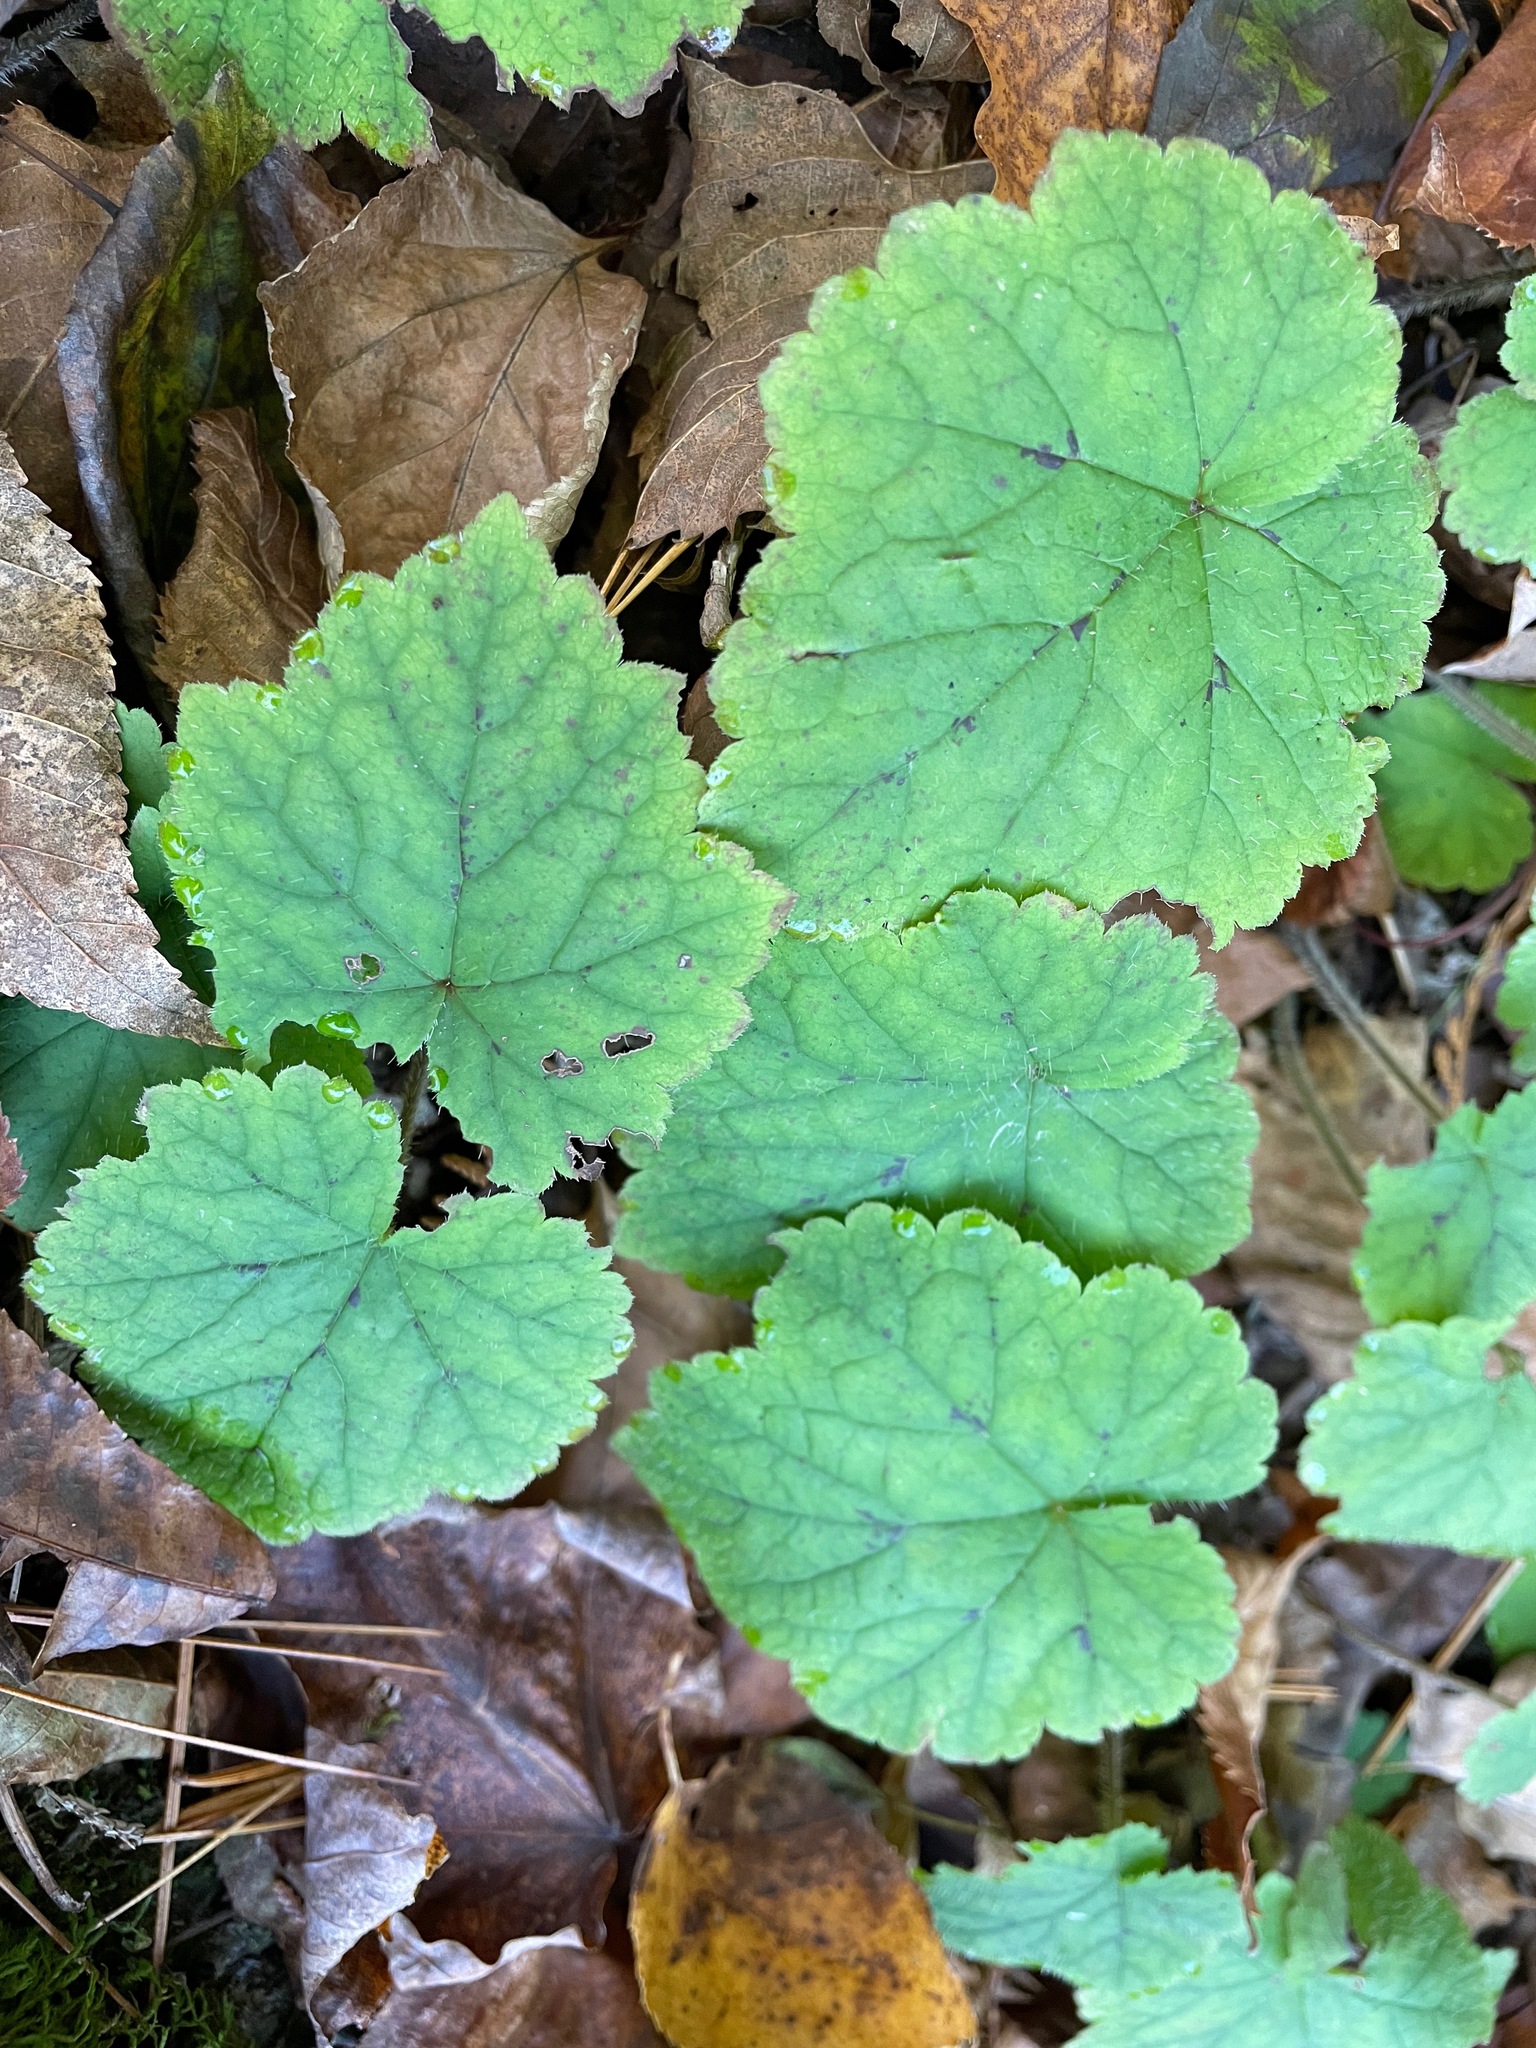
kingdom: Plantae
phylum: Tracheophyta
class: Magnoliopsida
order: Saxifragales
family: Saxifragaceae
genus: Tiarella
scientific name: Tiarella stolonifera
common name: Stoloniferous foamflower
